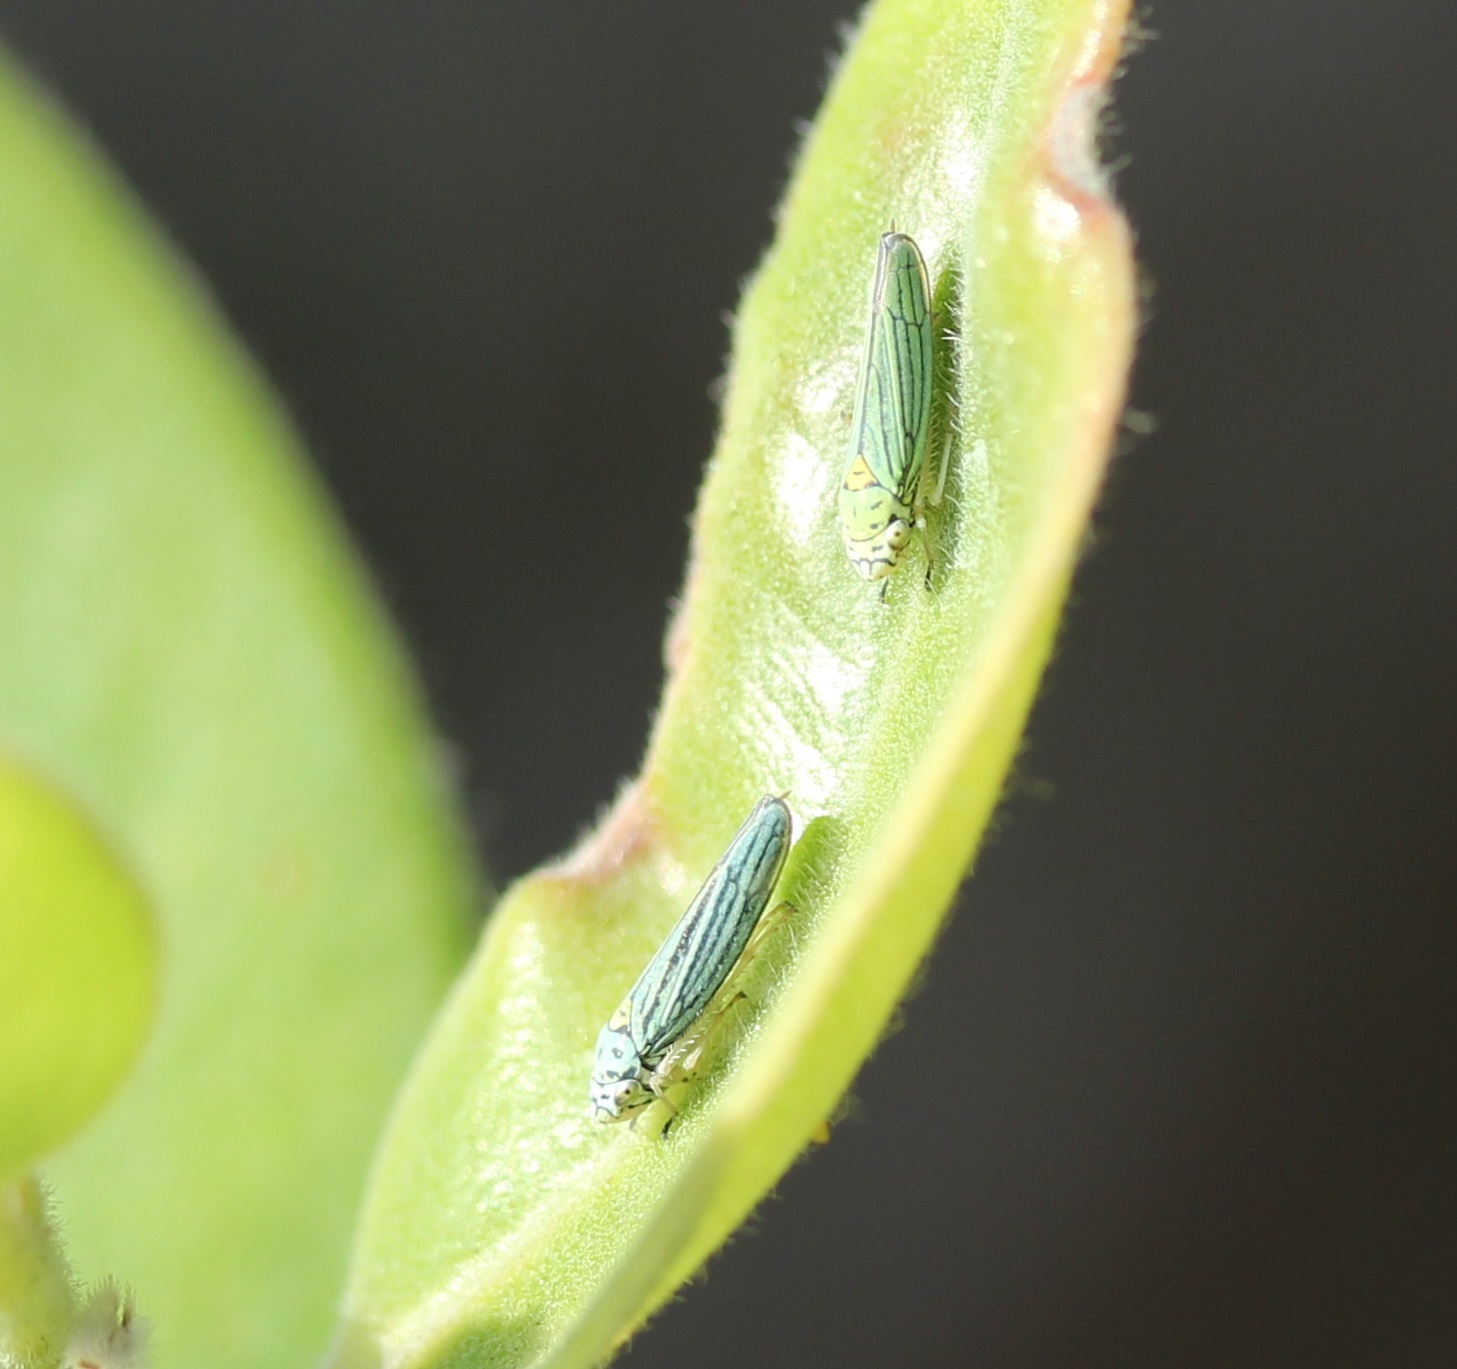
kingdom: Animalia
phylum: Arthropoda
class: Insecta
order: Hemiptera
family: Cicadellidae
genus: Graphocephala
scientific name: Graphocephala atropunctata
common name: Blue-green sharpshooter
